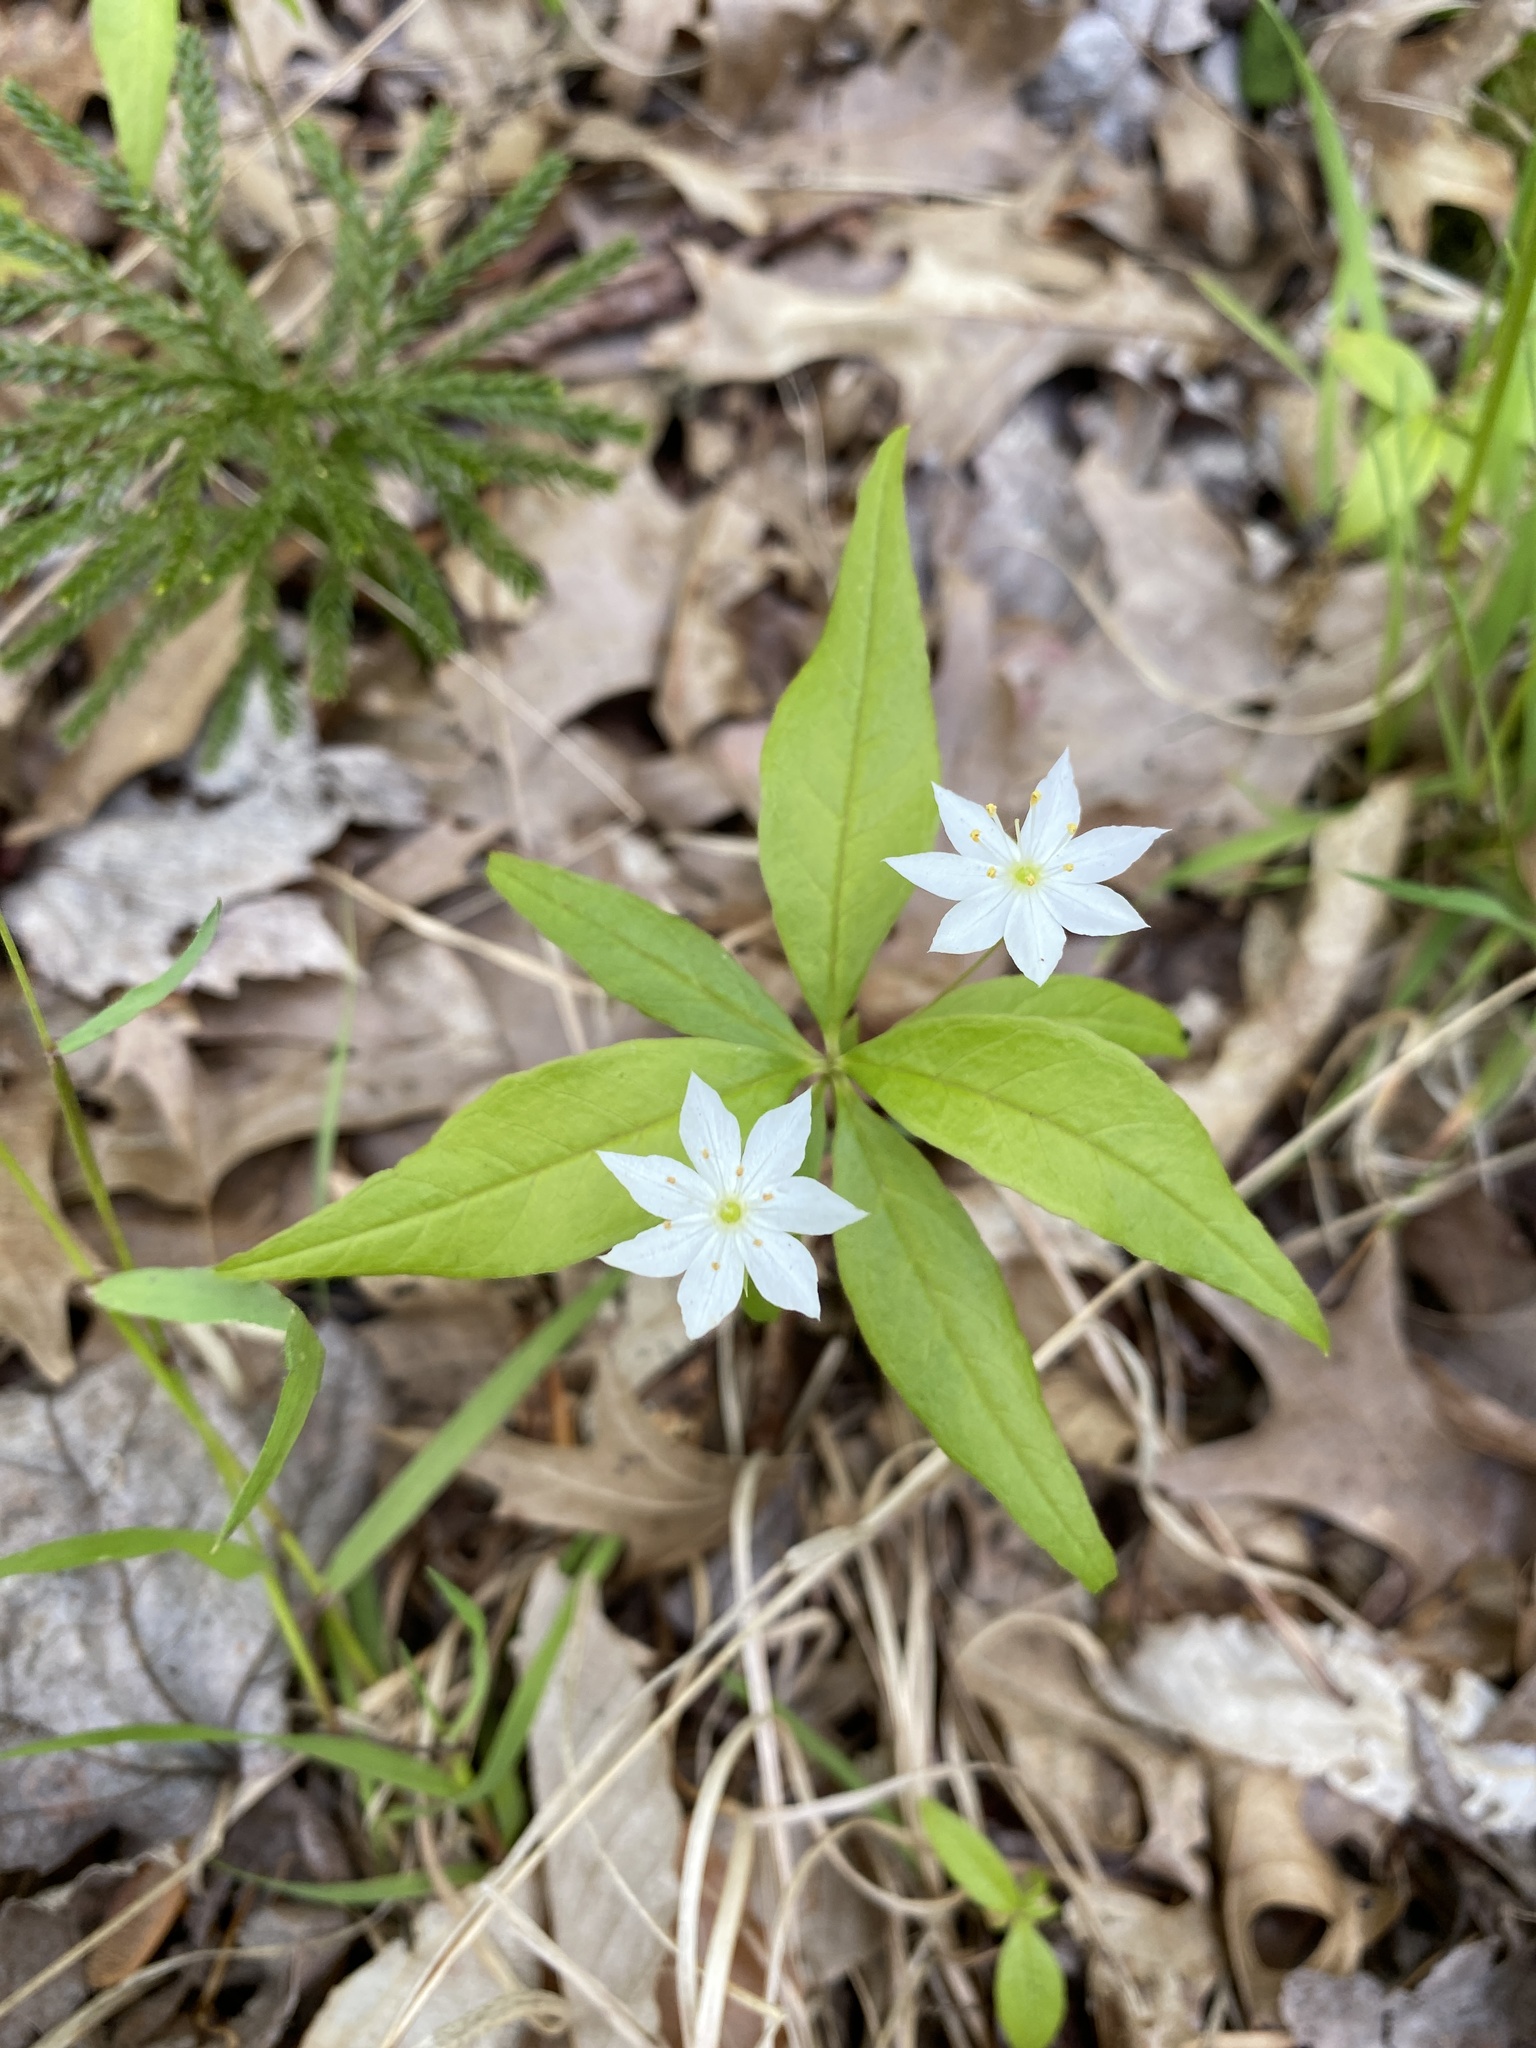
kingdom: Plantae
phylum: Tracheophyta
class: Magnoliopsida
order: Ericales
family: Primulaceae
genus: Lysimachia
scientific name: Lysimachia borealis
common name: American starflower
